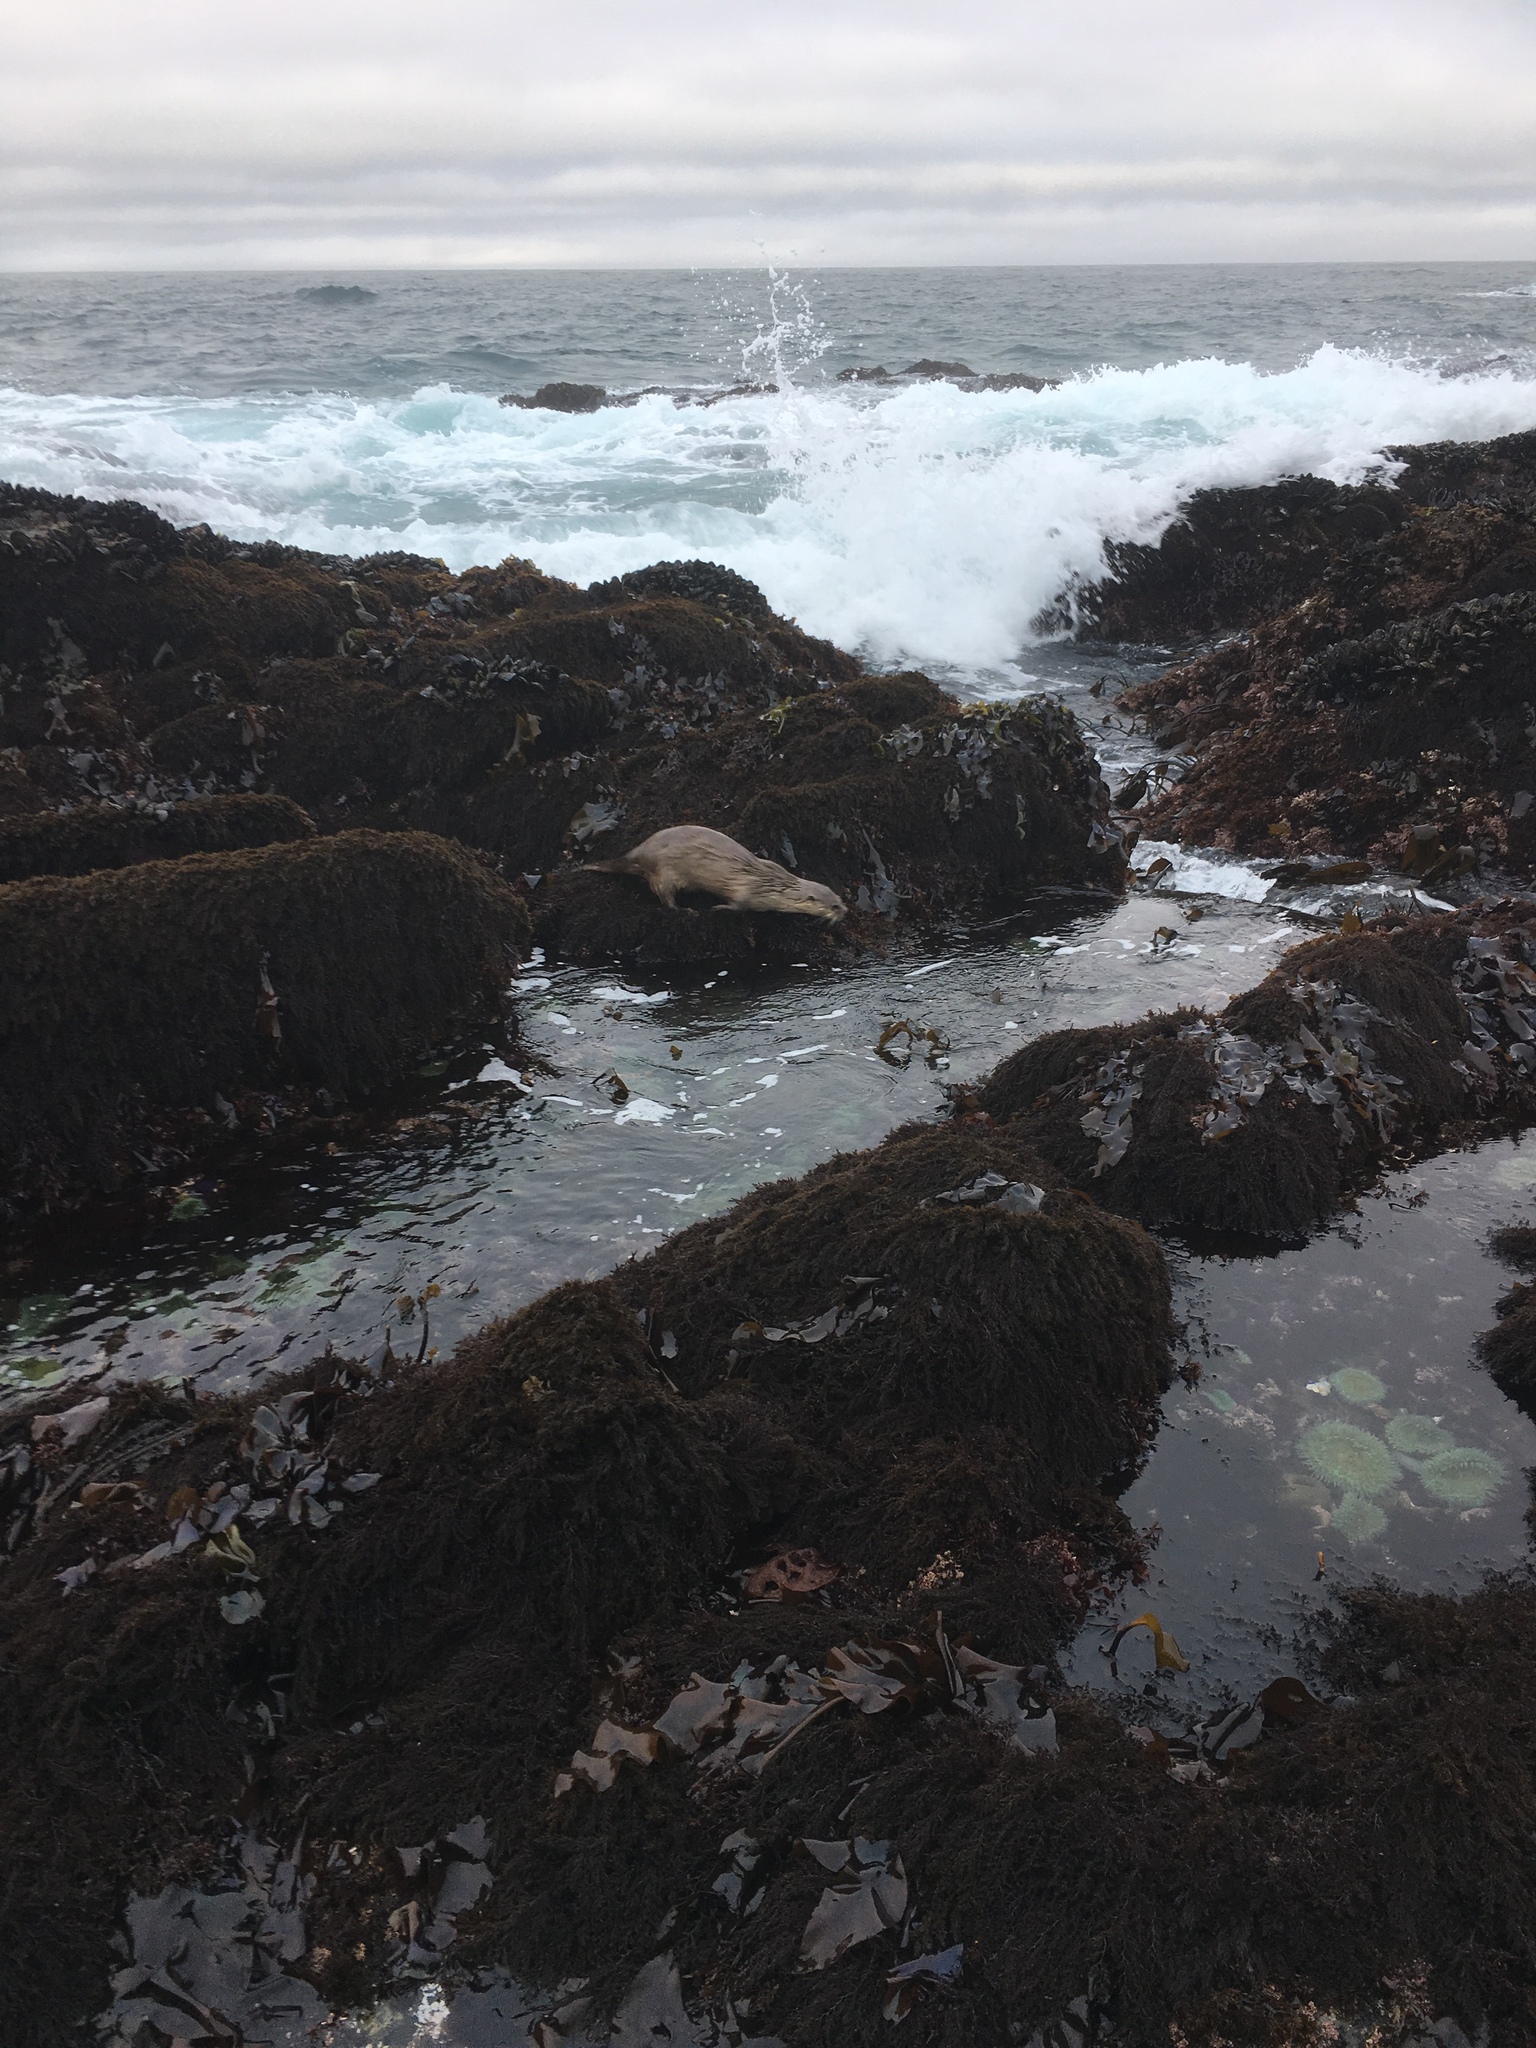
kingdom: Animalia
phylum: Chordata
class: Mammalia
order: Carnivora
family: Mustelidae
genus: Lontra
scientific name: Lontra canadensis
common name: North american river otter
